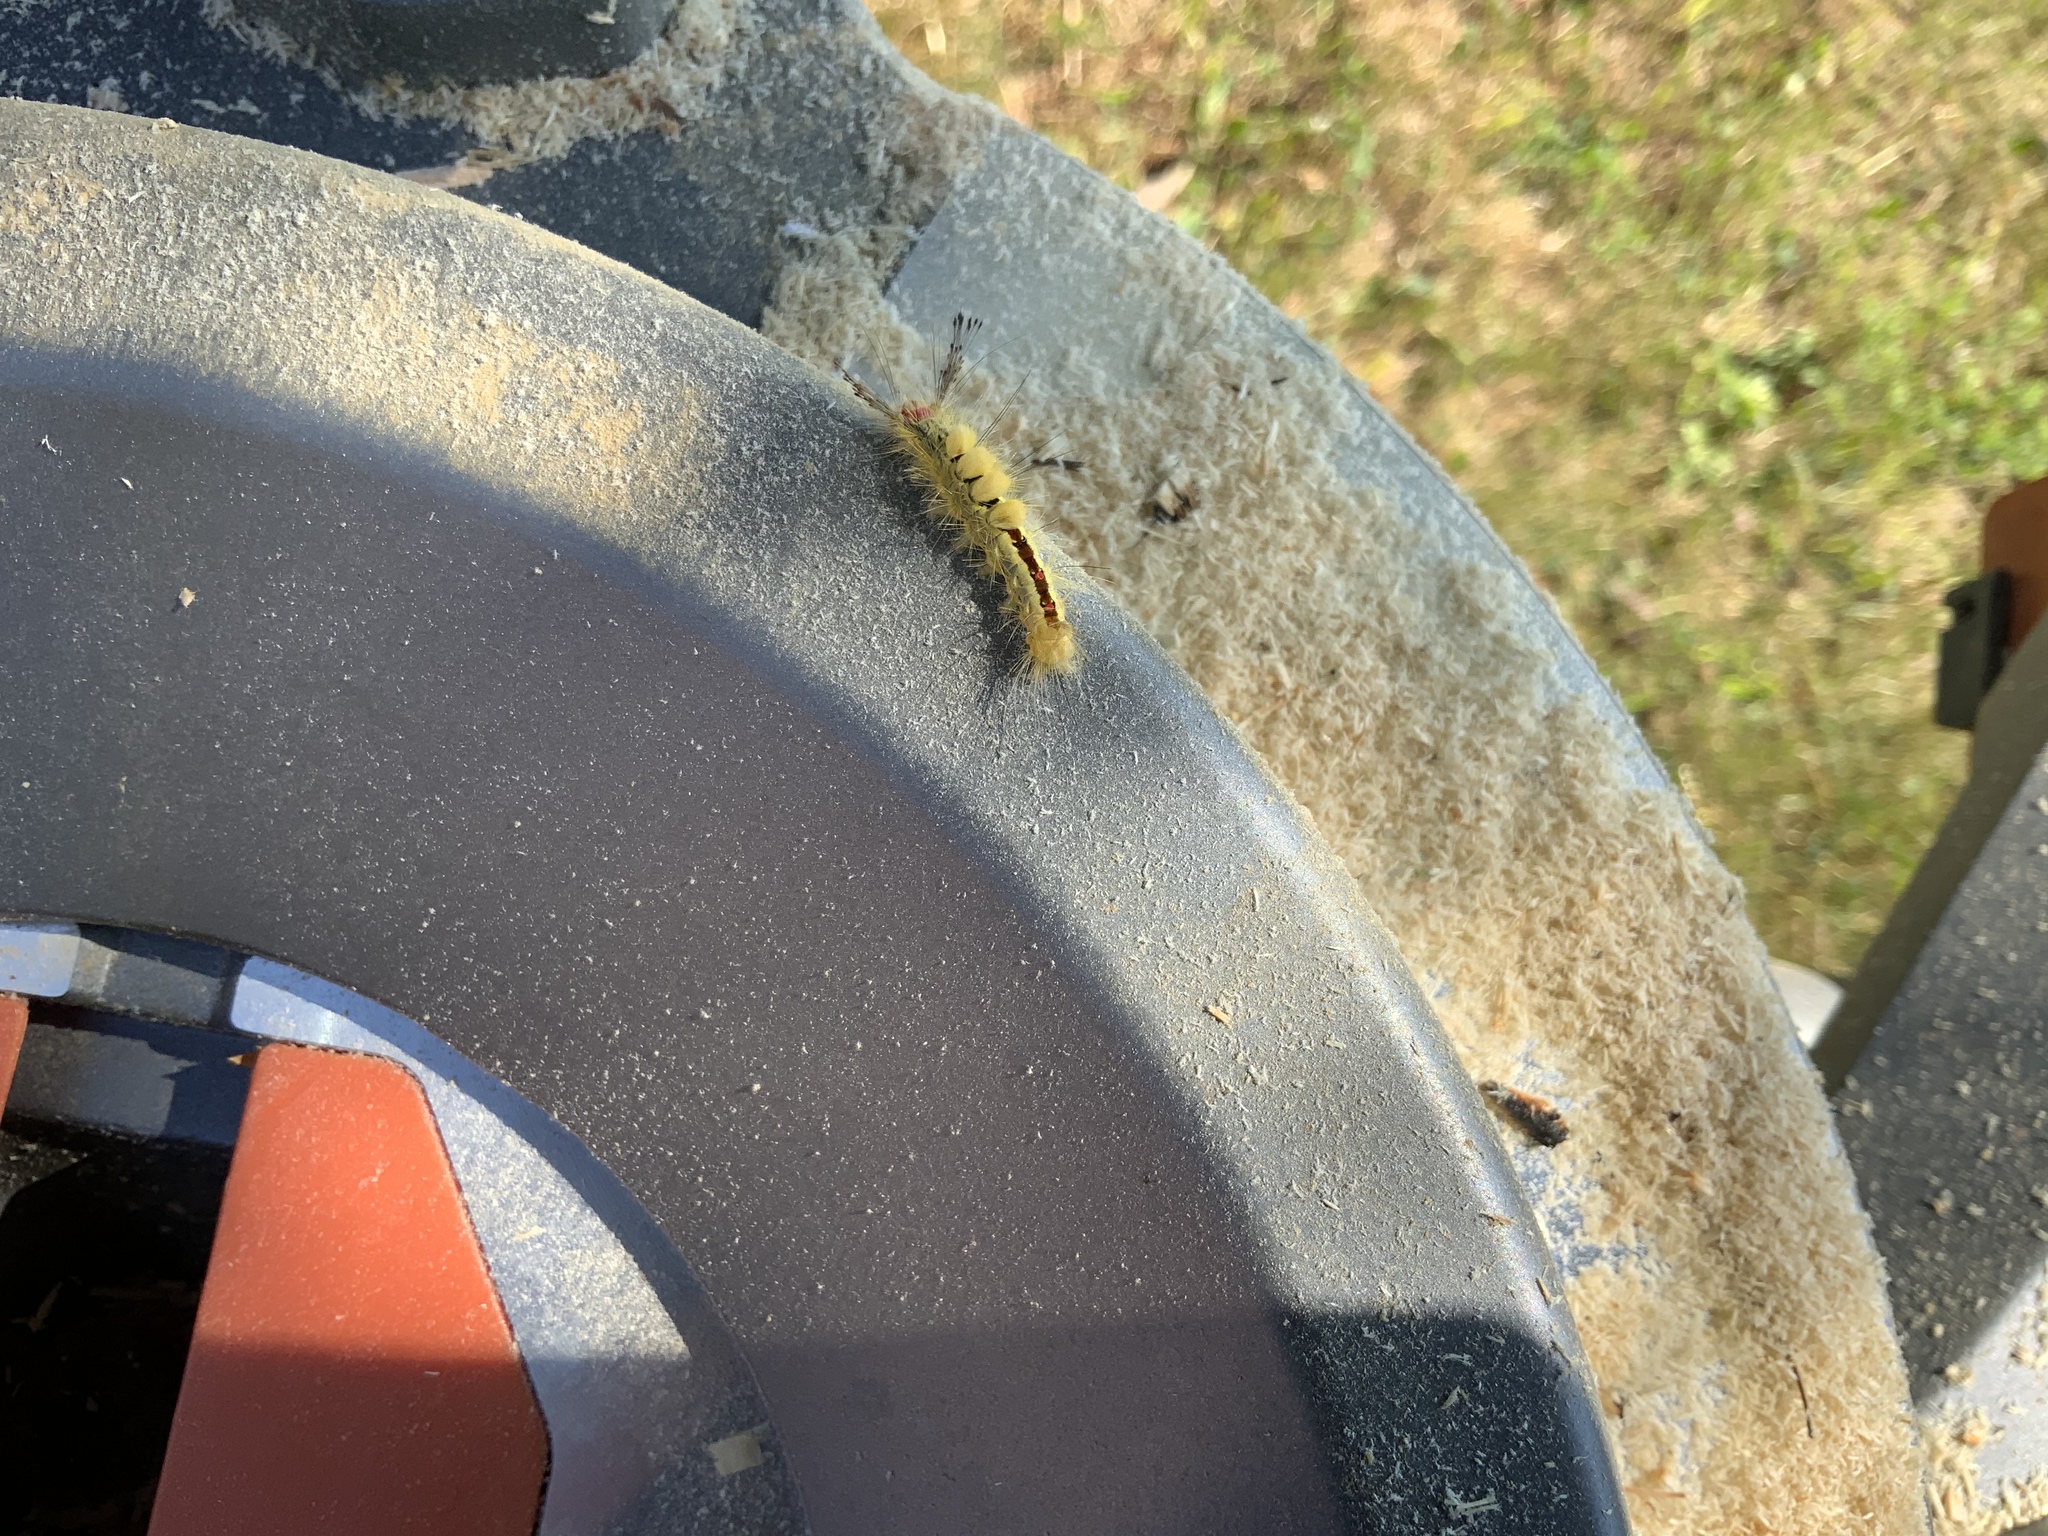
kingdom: Animalia
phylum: Arthropoda
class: Insecta
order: Lepidoptera
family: Erebidae
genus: Orgyia
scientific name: Orgyia leucostigma
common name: White-marked tussock moth
